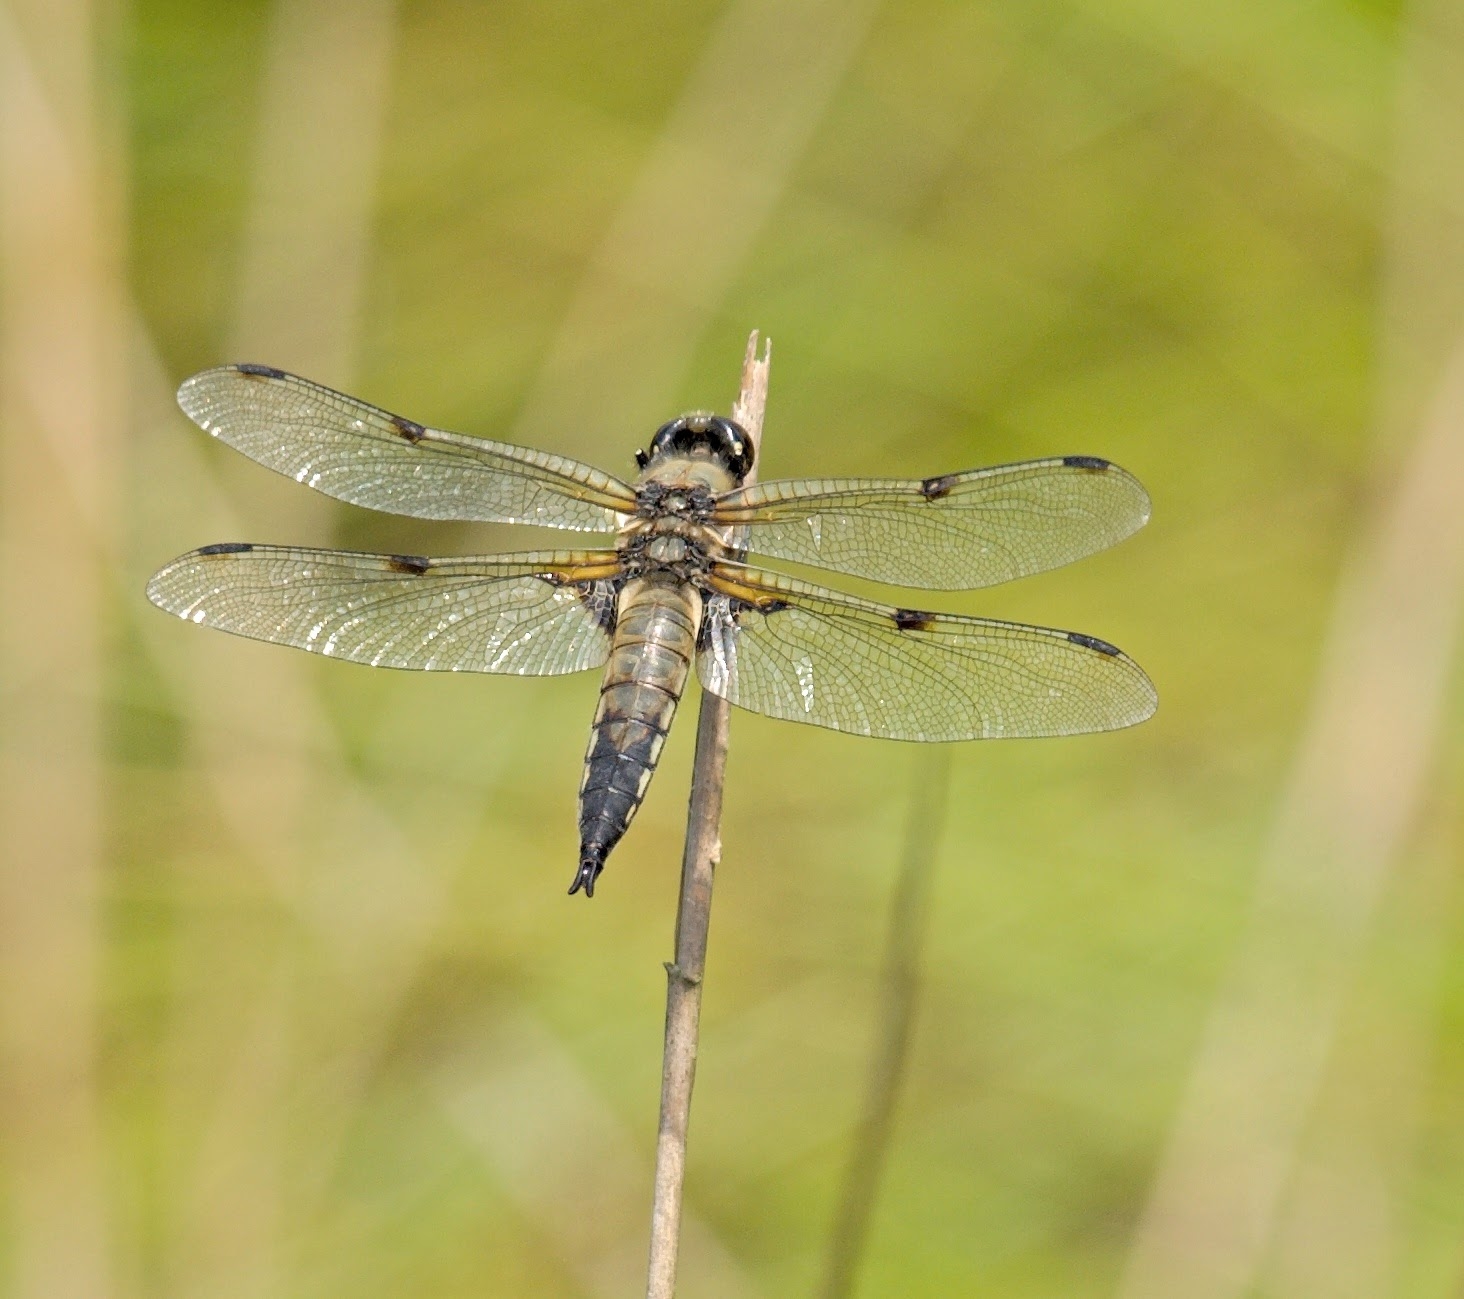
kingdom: Animalia
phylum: Arthropoda
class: Insecta
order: Odonata
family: Libellulidae
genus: Libellula
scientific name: Libellula quadrimaculata
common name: Four-spotted chaser
